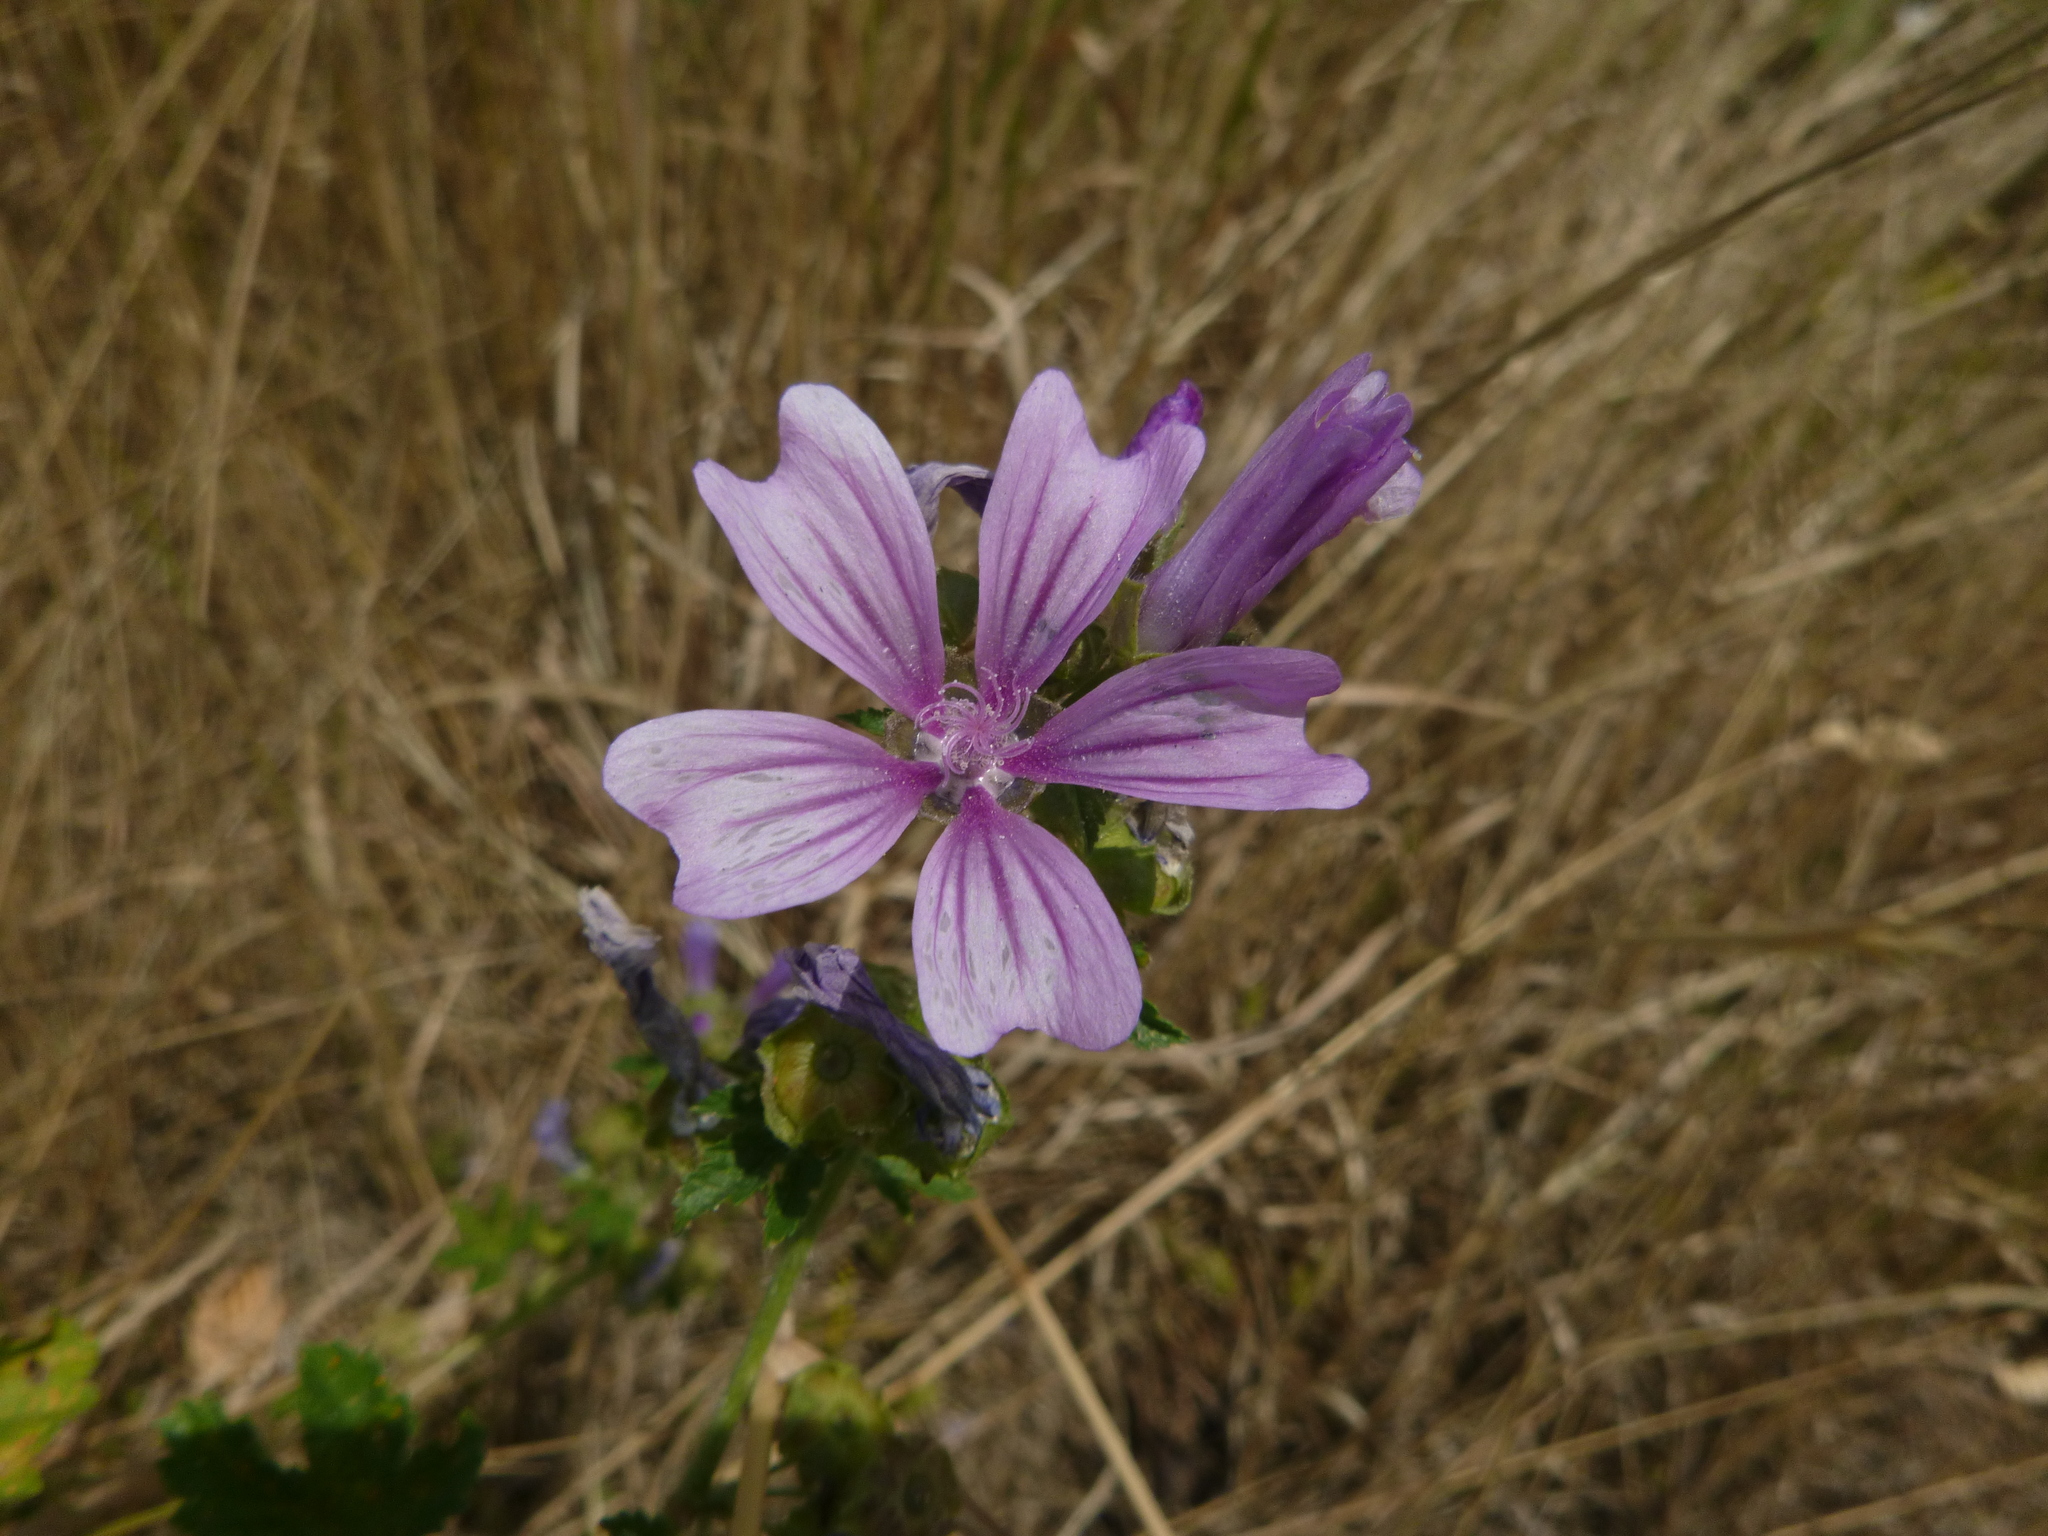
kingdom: Plantae
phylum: Tracheophyta
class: Magnoliopsida
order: Malvales
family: Malvaceae
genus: Malva
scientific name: Malva sylvestris
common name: Common mallow
